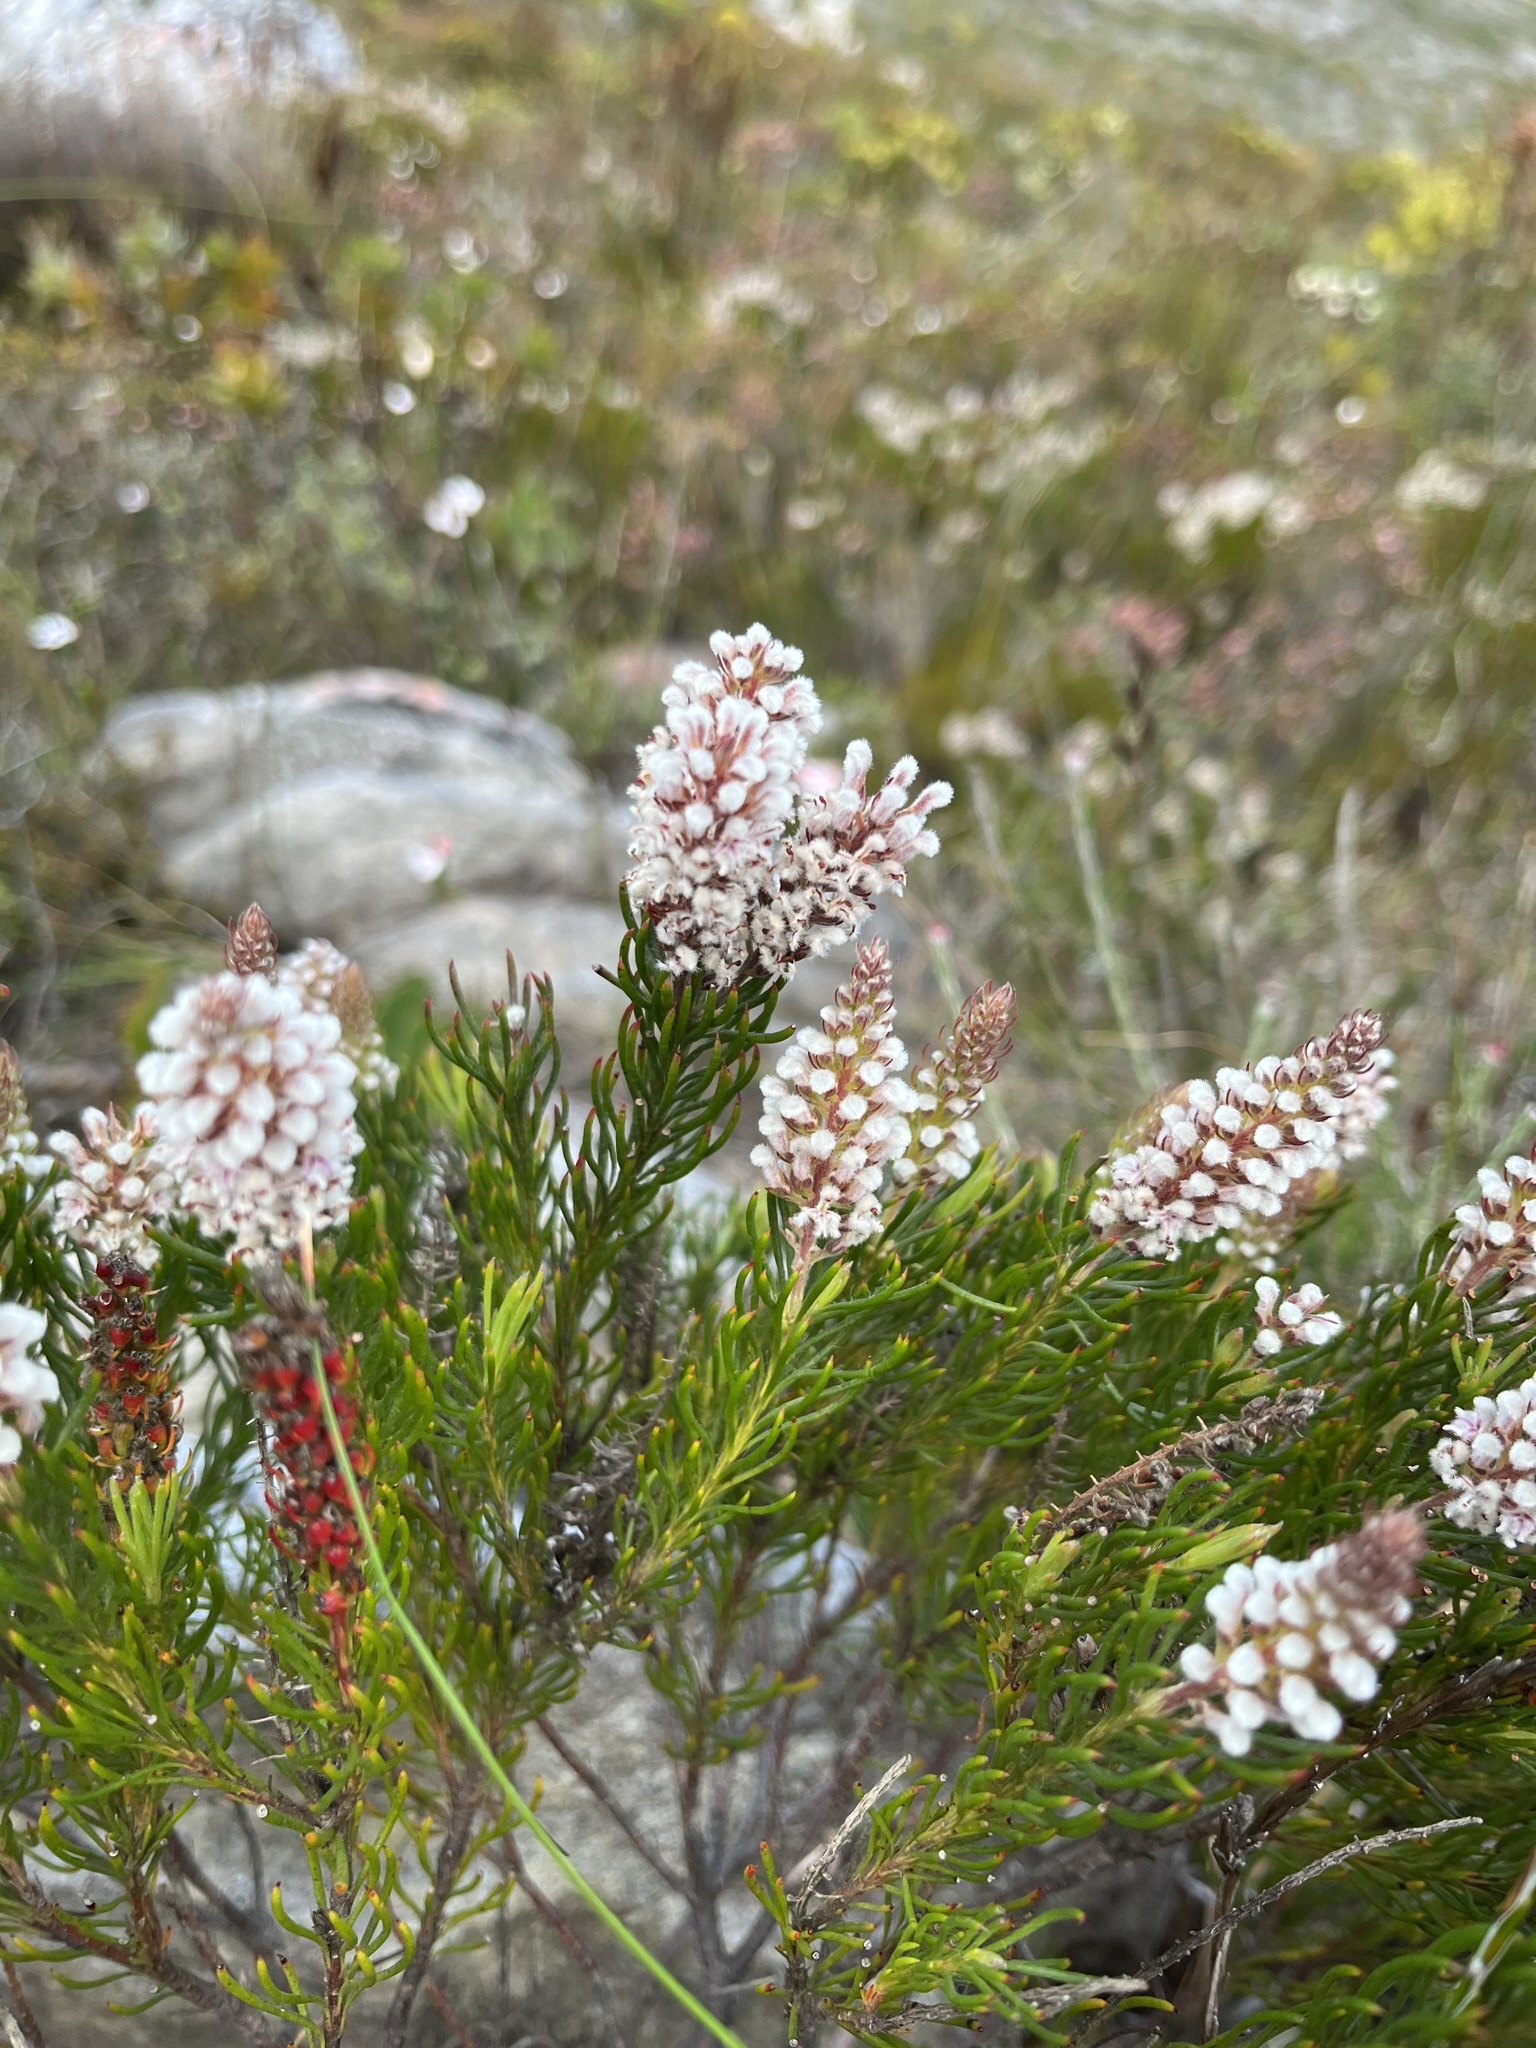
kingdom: Plantae
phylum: Tracheophyta
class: Magnoliopsida
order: Proteales
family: Proteaceae
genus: Spatalla
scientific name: Spatalla curvifolia
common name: White-stalked spoon
